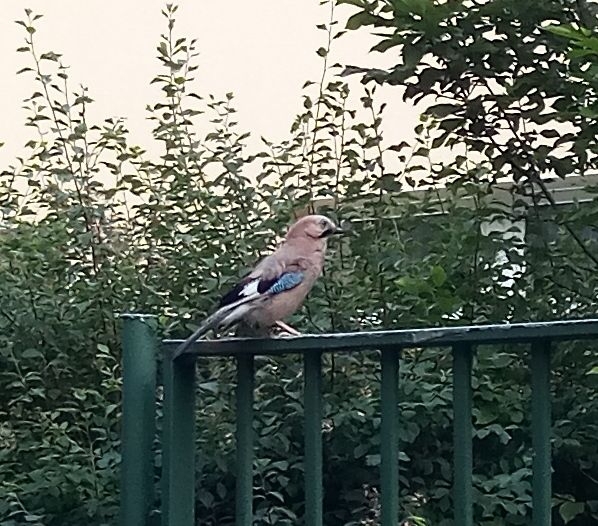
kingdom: Animalia
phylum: Chordata
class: Aves
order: Passeriformes
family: Corvidae
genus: Garrulus
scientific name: Garrulus glandarius
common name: Eurasian jay
